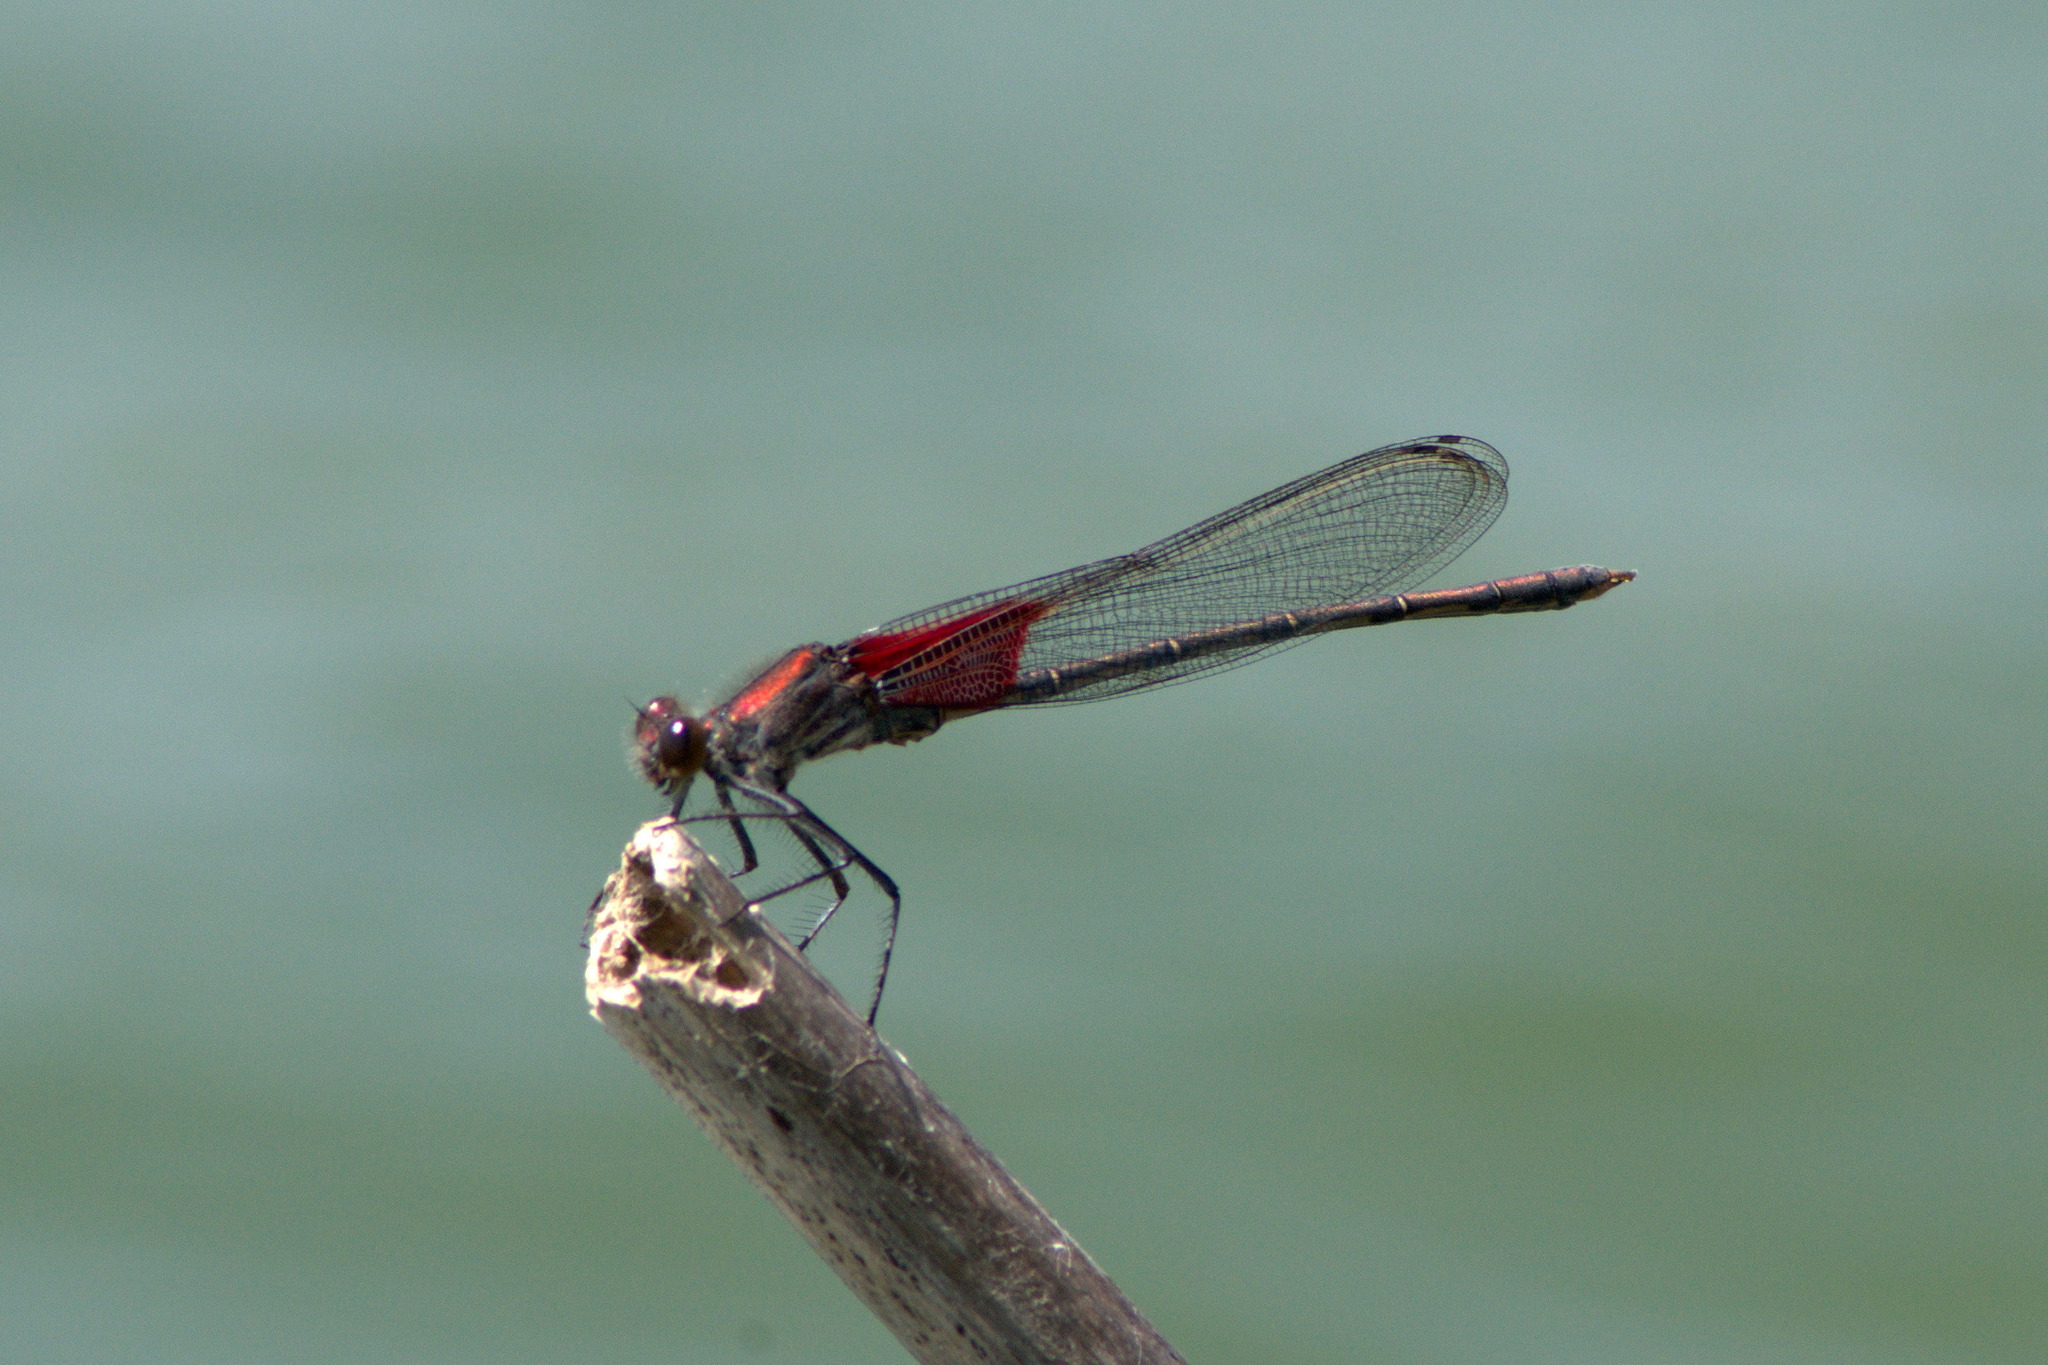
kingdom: Animalia
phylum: Arthropoda
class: Insecta
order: Odonata
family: Calopterygidae
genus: Hetaerina
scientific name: Hetaerina americana
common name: American rubyspot
